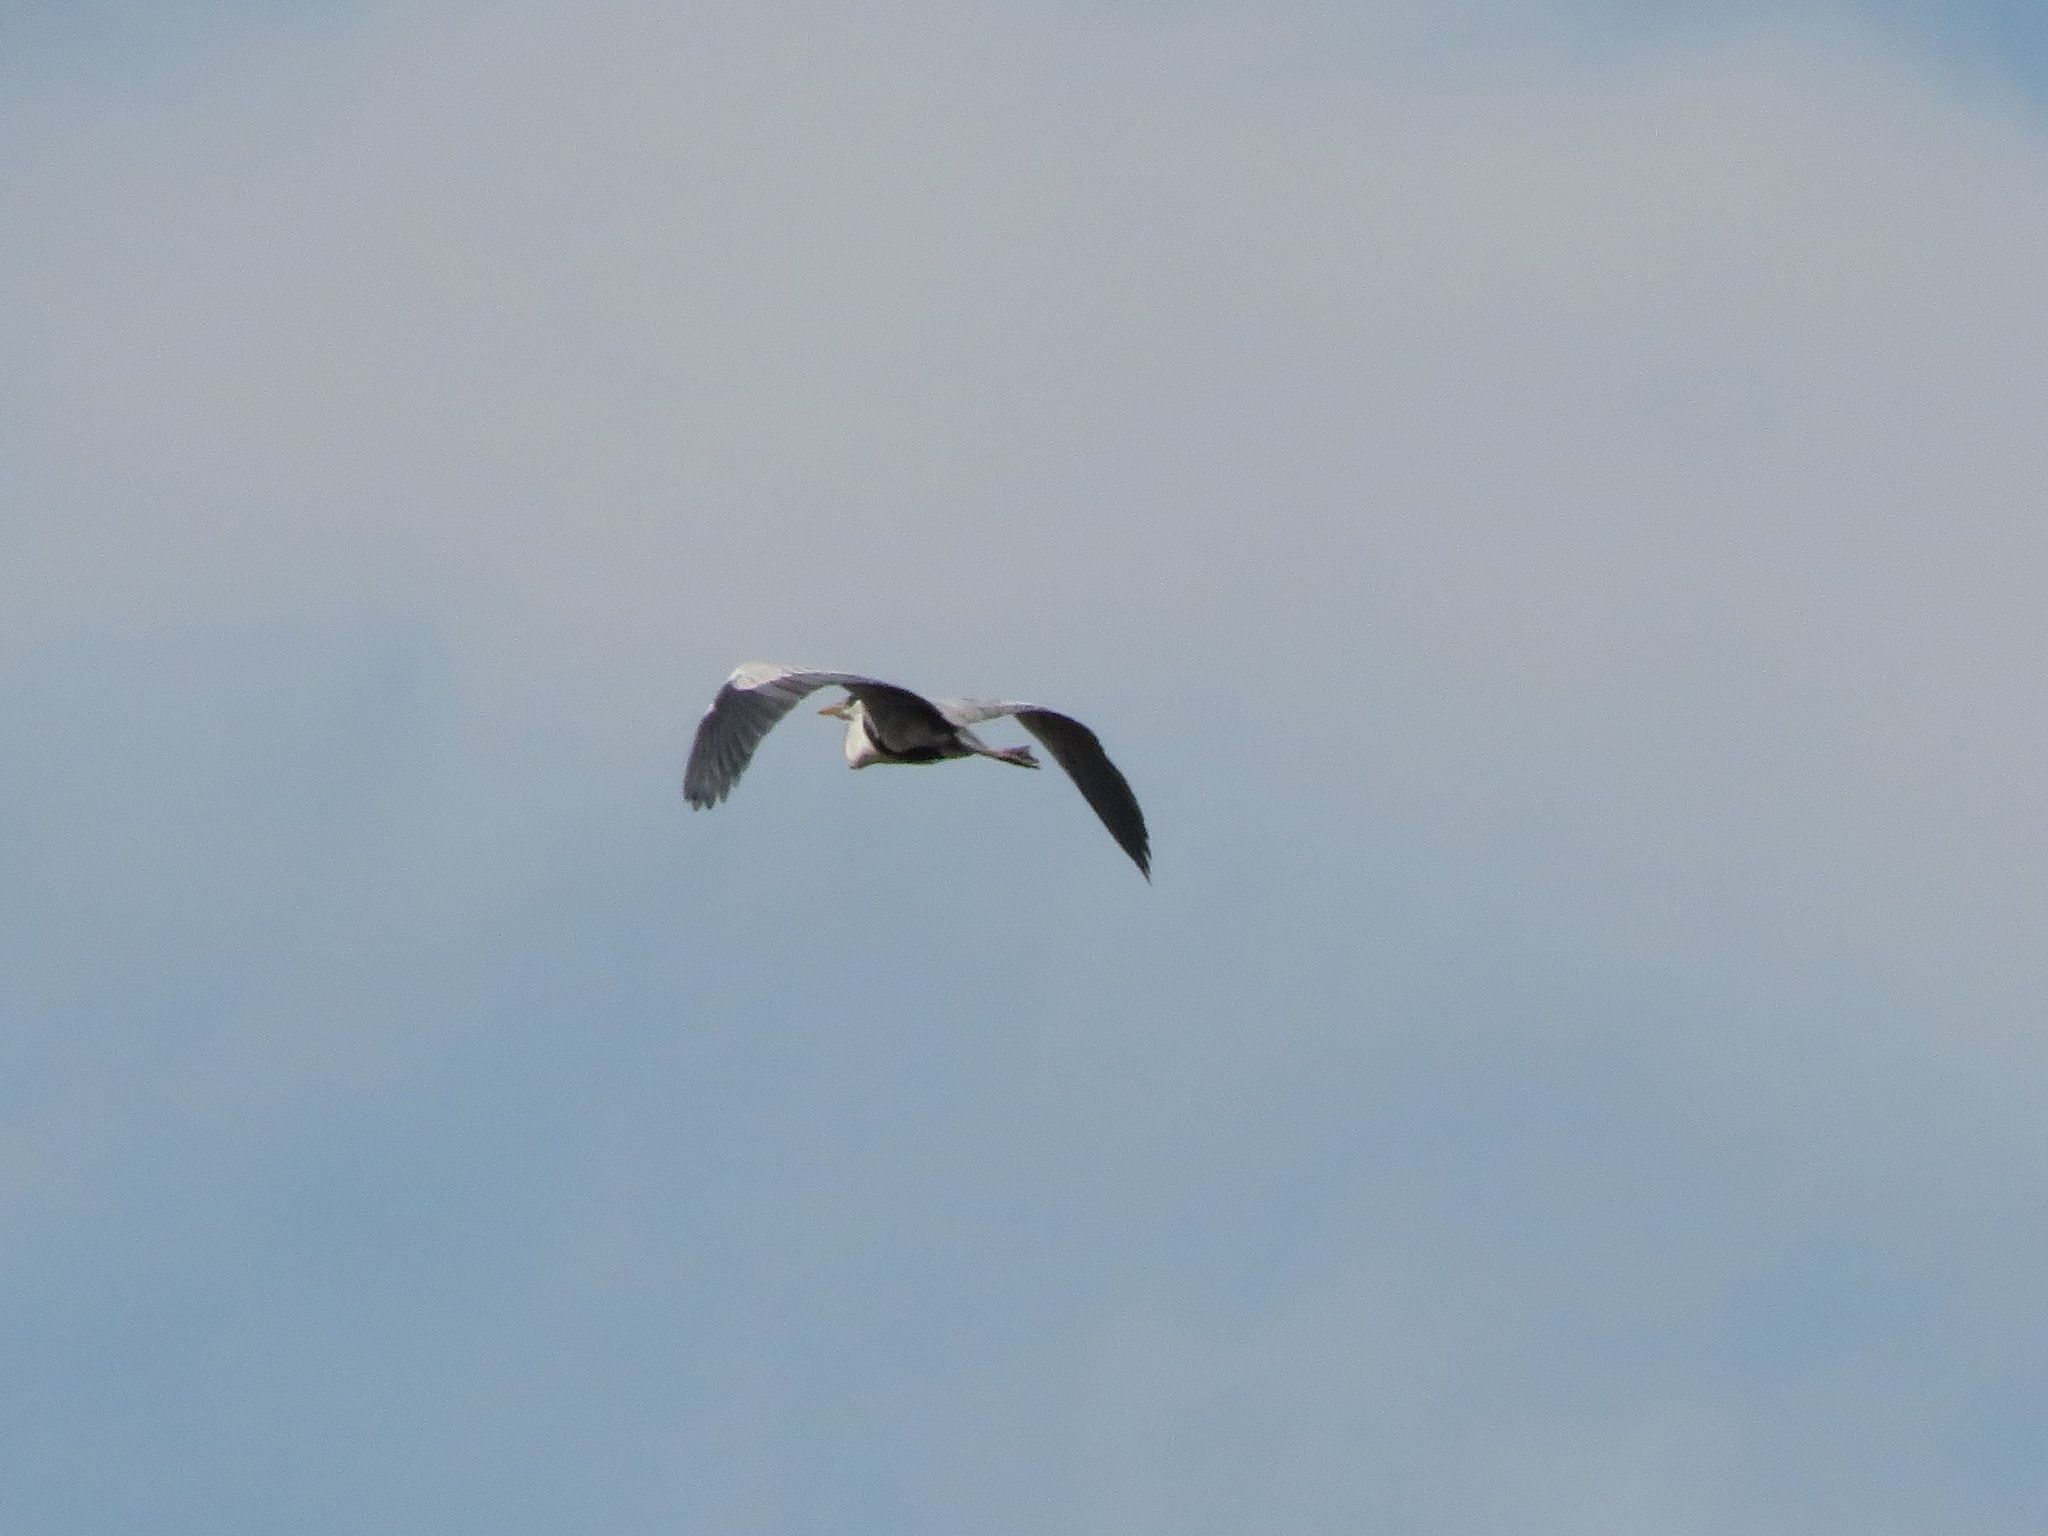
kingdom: Animalia
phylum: Chordata
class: Aves
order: Pelecaniformes
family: Ardeidae
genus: Ardea
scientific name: Ardea cocoi
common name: Cocoi heron
